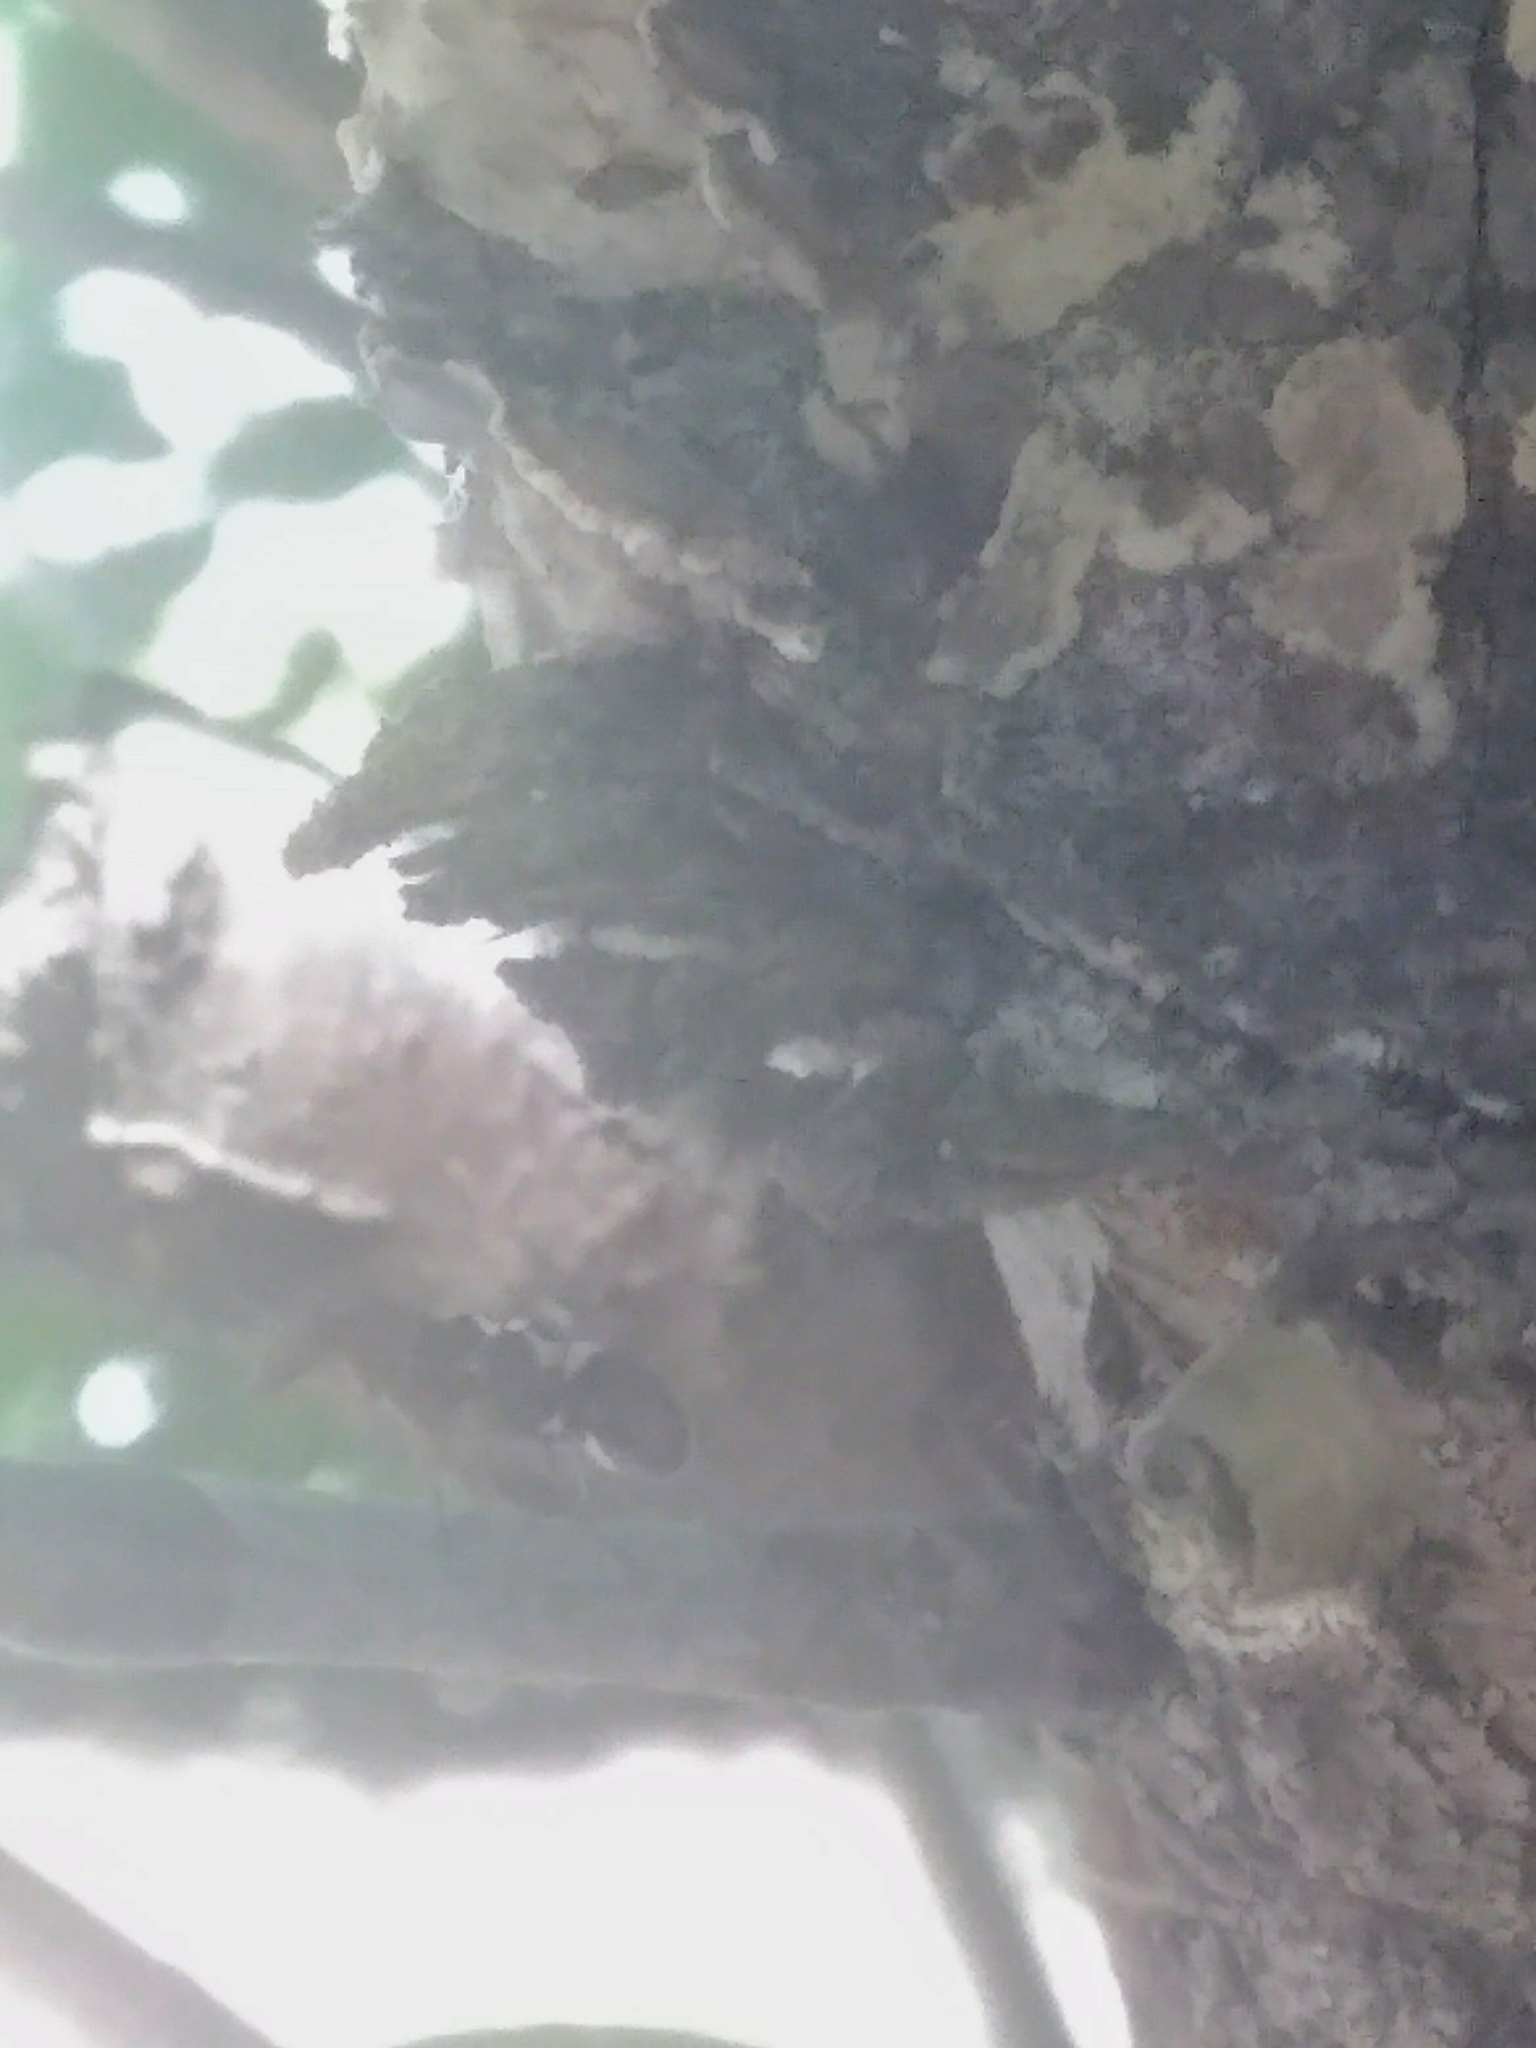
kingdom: Animalia
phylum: Arthropoda
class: Insecta
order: Diptera
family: Ulidiidae
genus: Delphinia
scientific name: Delphinia picta
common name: Common picture-winged fly
